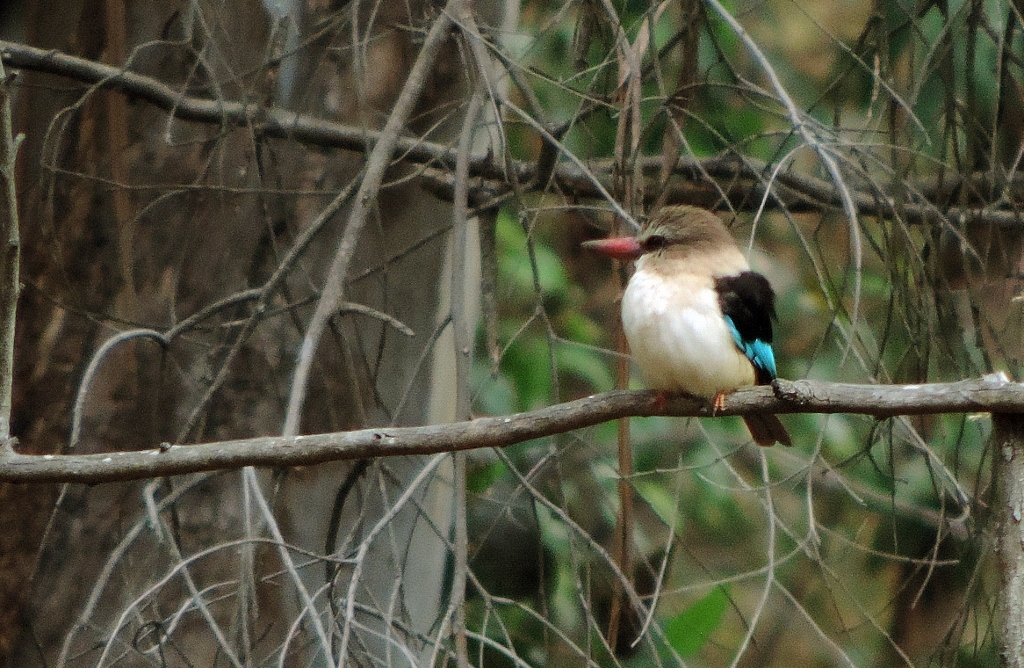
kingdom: Animalia
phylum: Chordata
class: Aves
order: Coraciiformes
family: Alcedinidae
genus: Halcyon
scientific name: Halcyon albiventris
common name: Brown-hooded kingfisher
